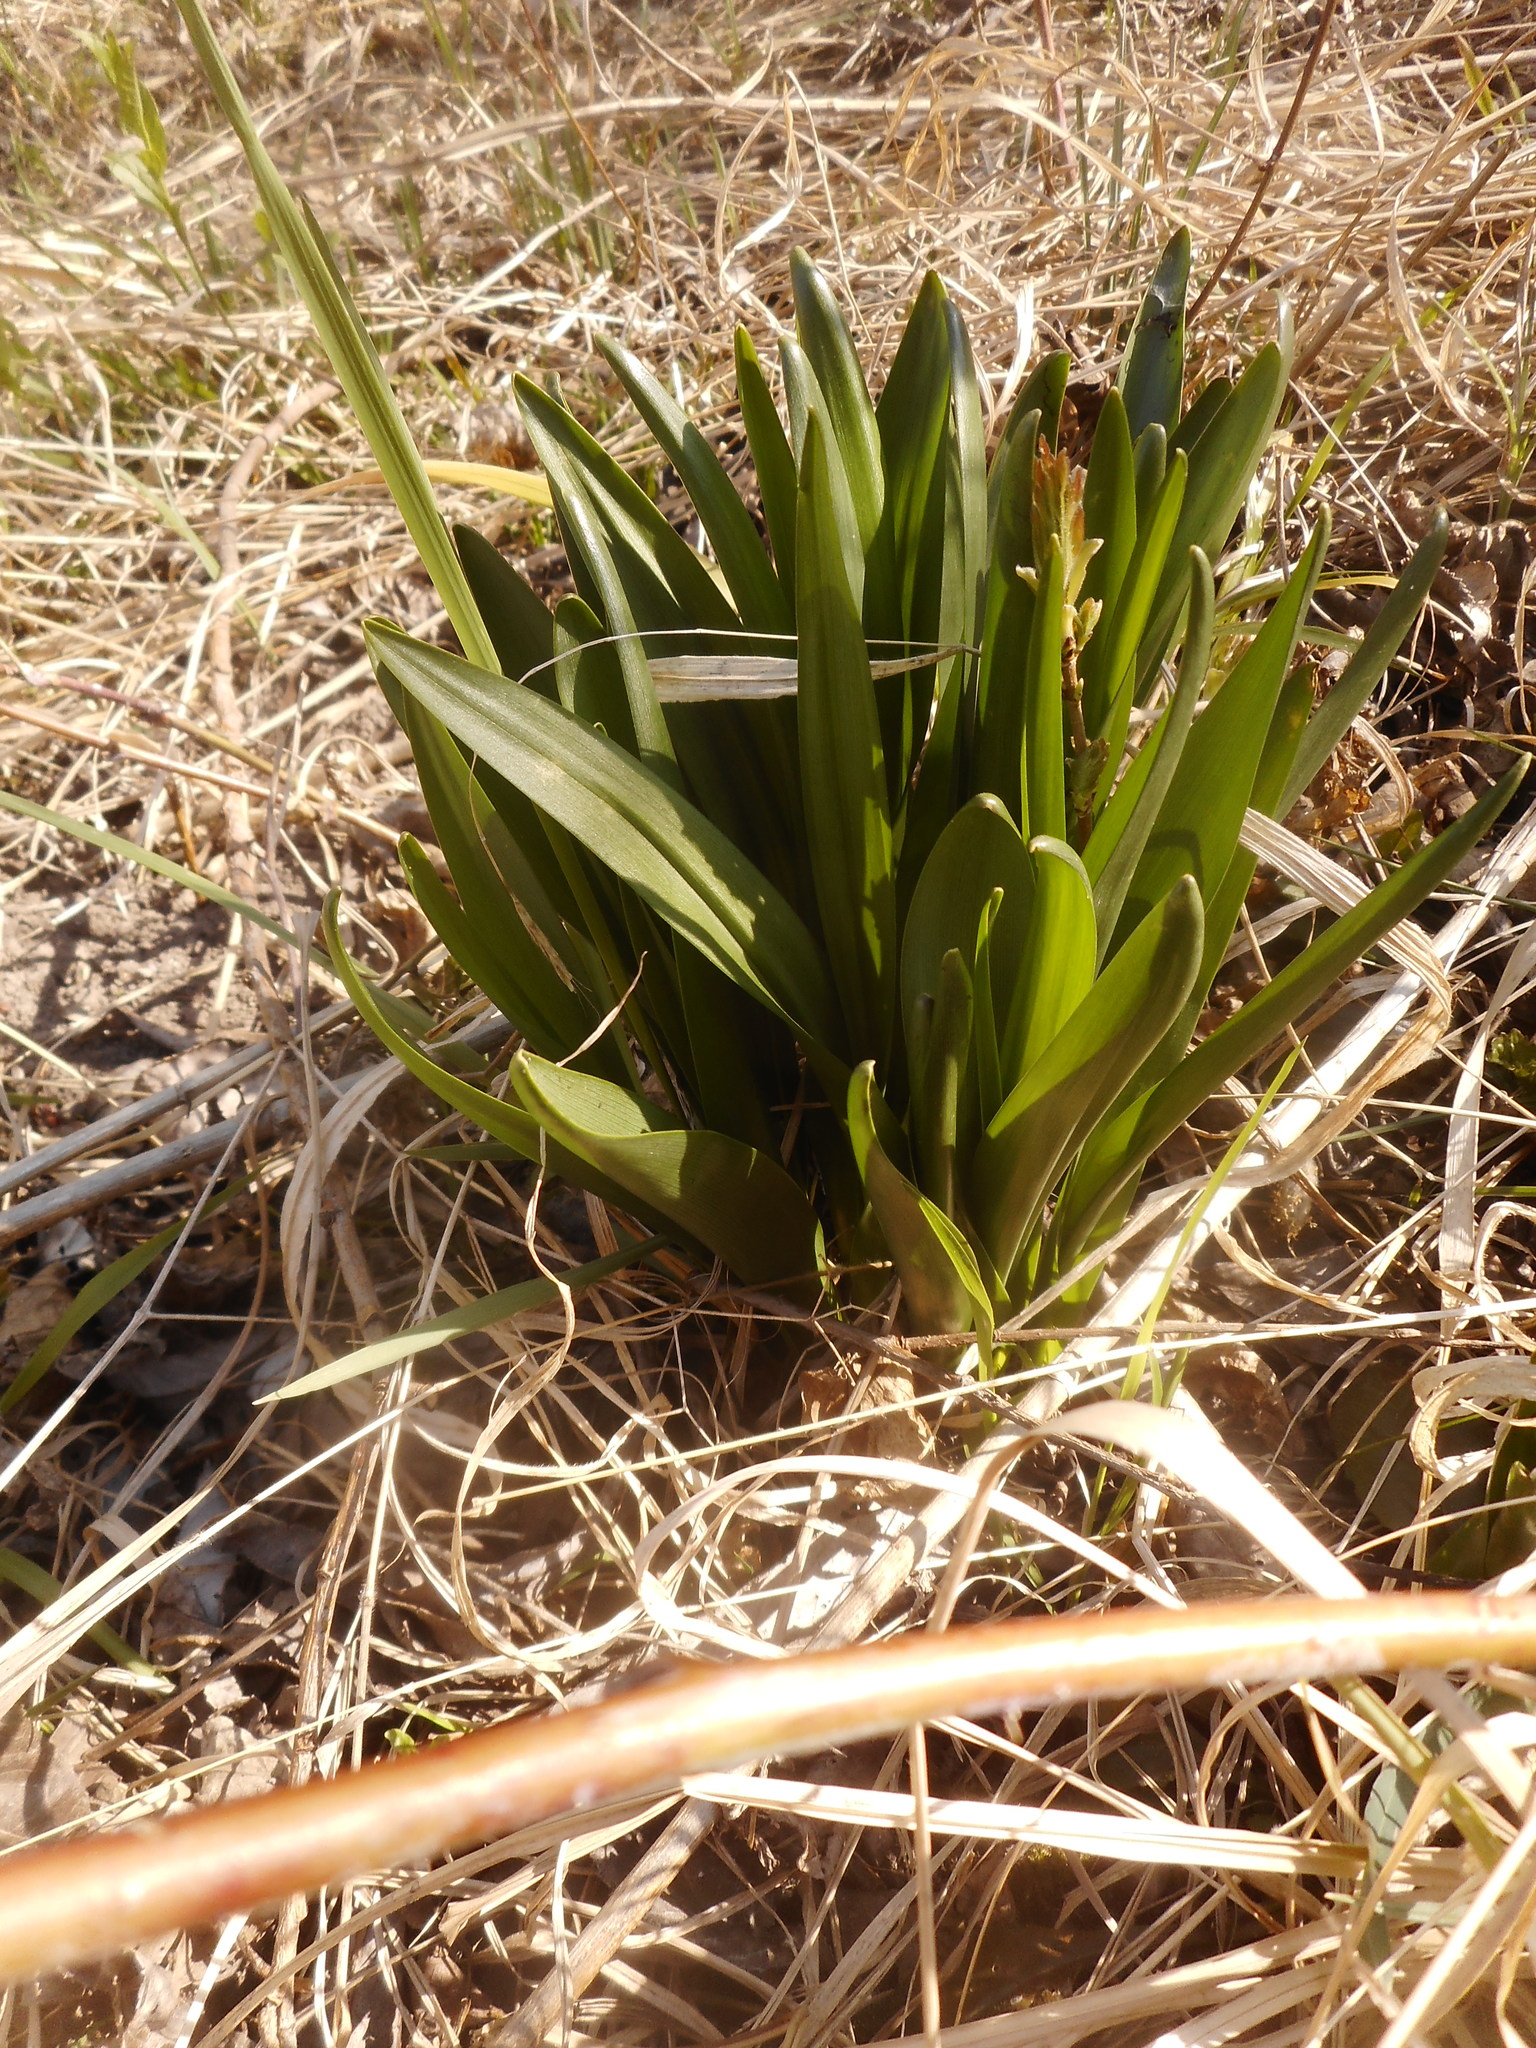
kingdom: Plantae
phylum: Tracheophyta
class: Liliopsida
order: Liliales
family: Colchicaceae
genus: Colchicum
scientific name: Colchicum autumnale
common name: Autumn crocus
